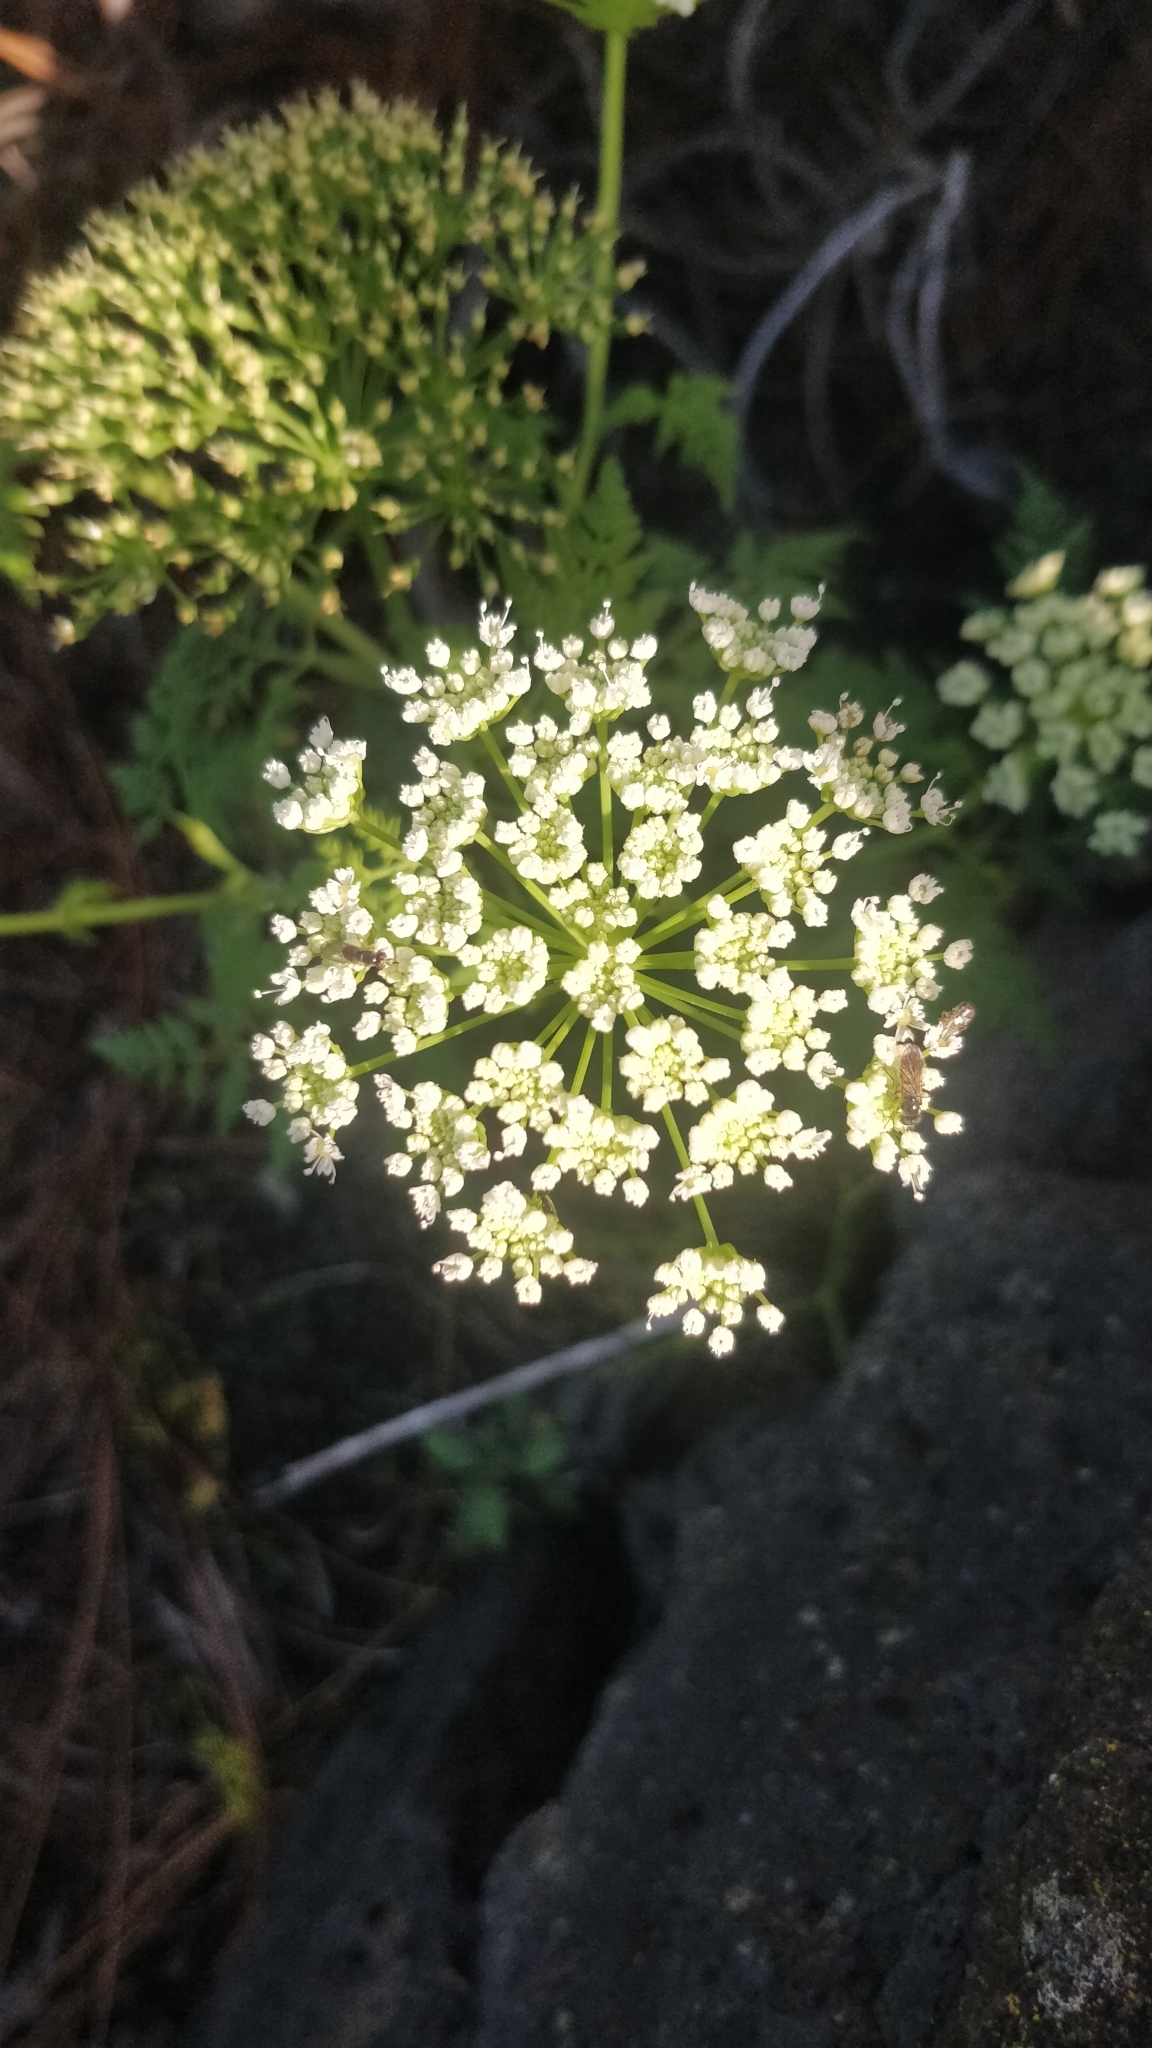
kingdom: Plantae
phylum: Tracheophyta
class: Magnoliopsida
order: Apiales
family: Apiaceae
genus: Todaroa
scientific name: Todaroa aurea
